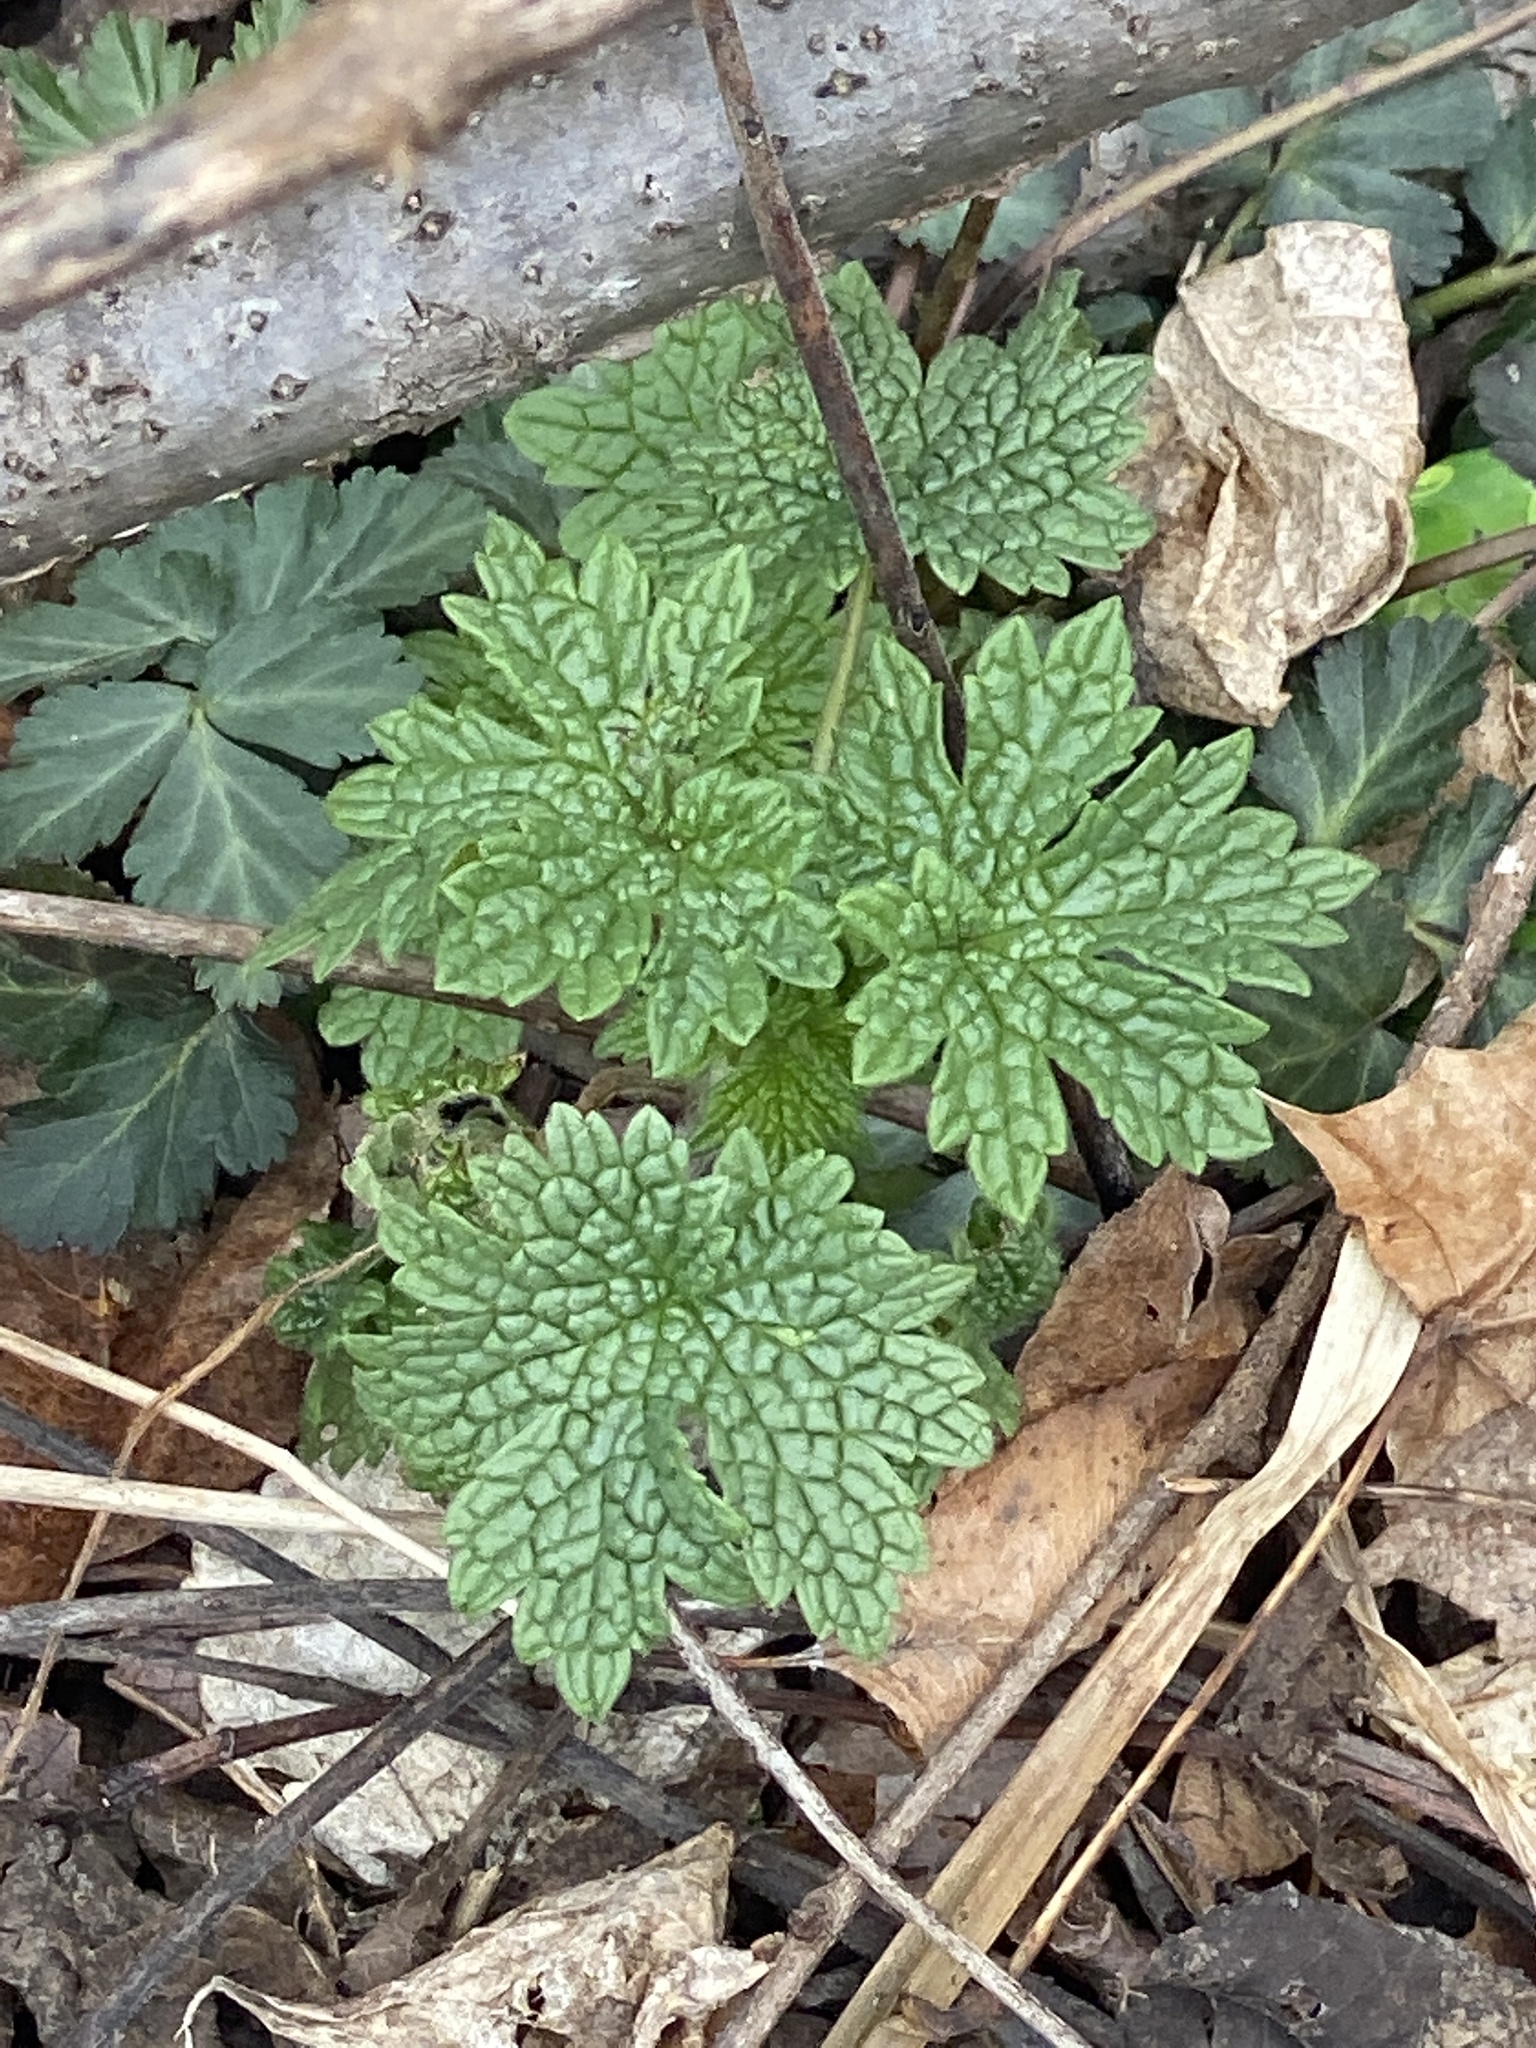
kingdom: Plantae
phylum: Tracheophyta
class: Magnoliopsida
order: Lamiales
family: Lamiaceae
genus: Leonurus
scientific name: Leonurus cardiaca
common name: Motherwort
